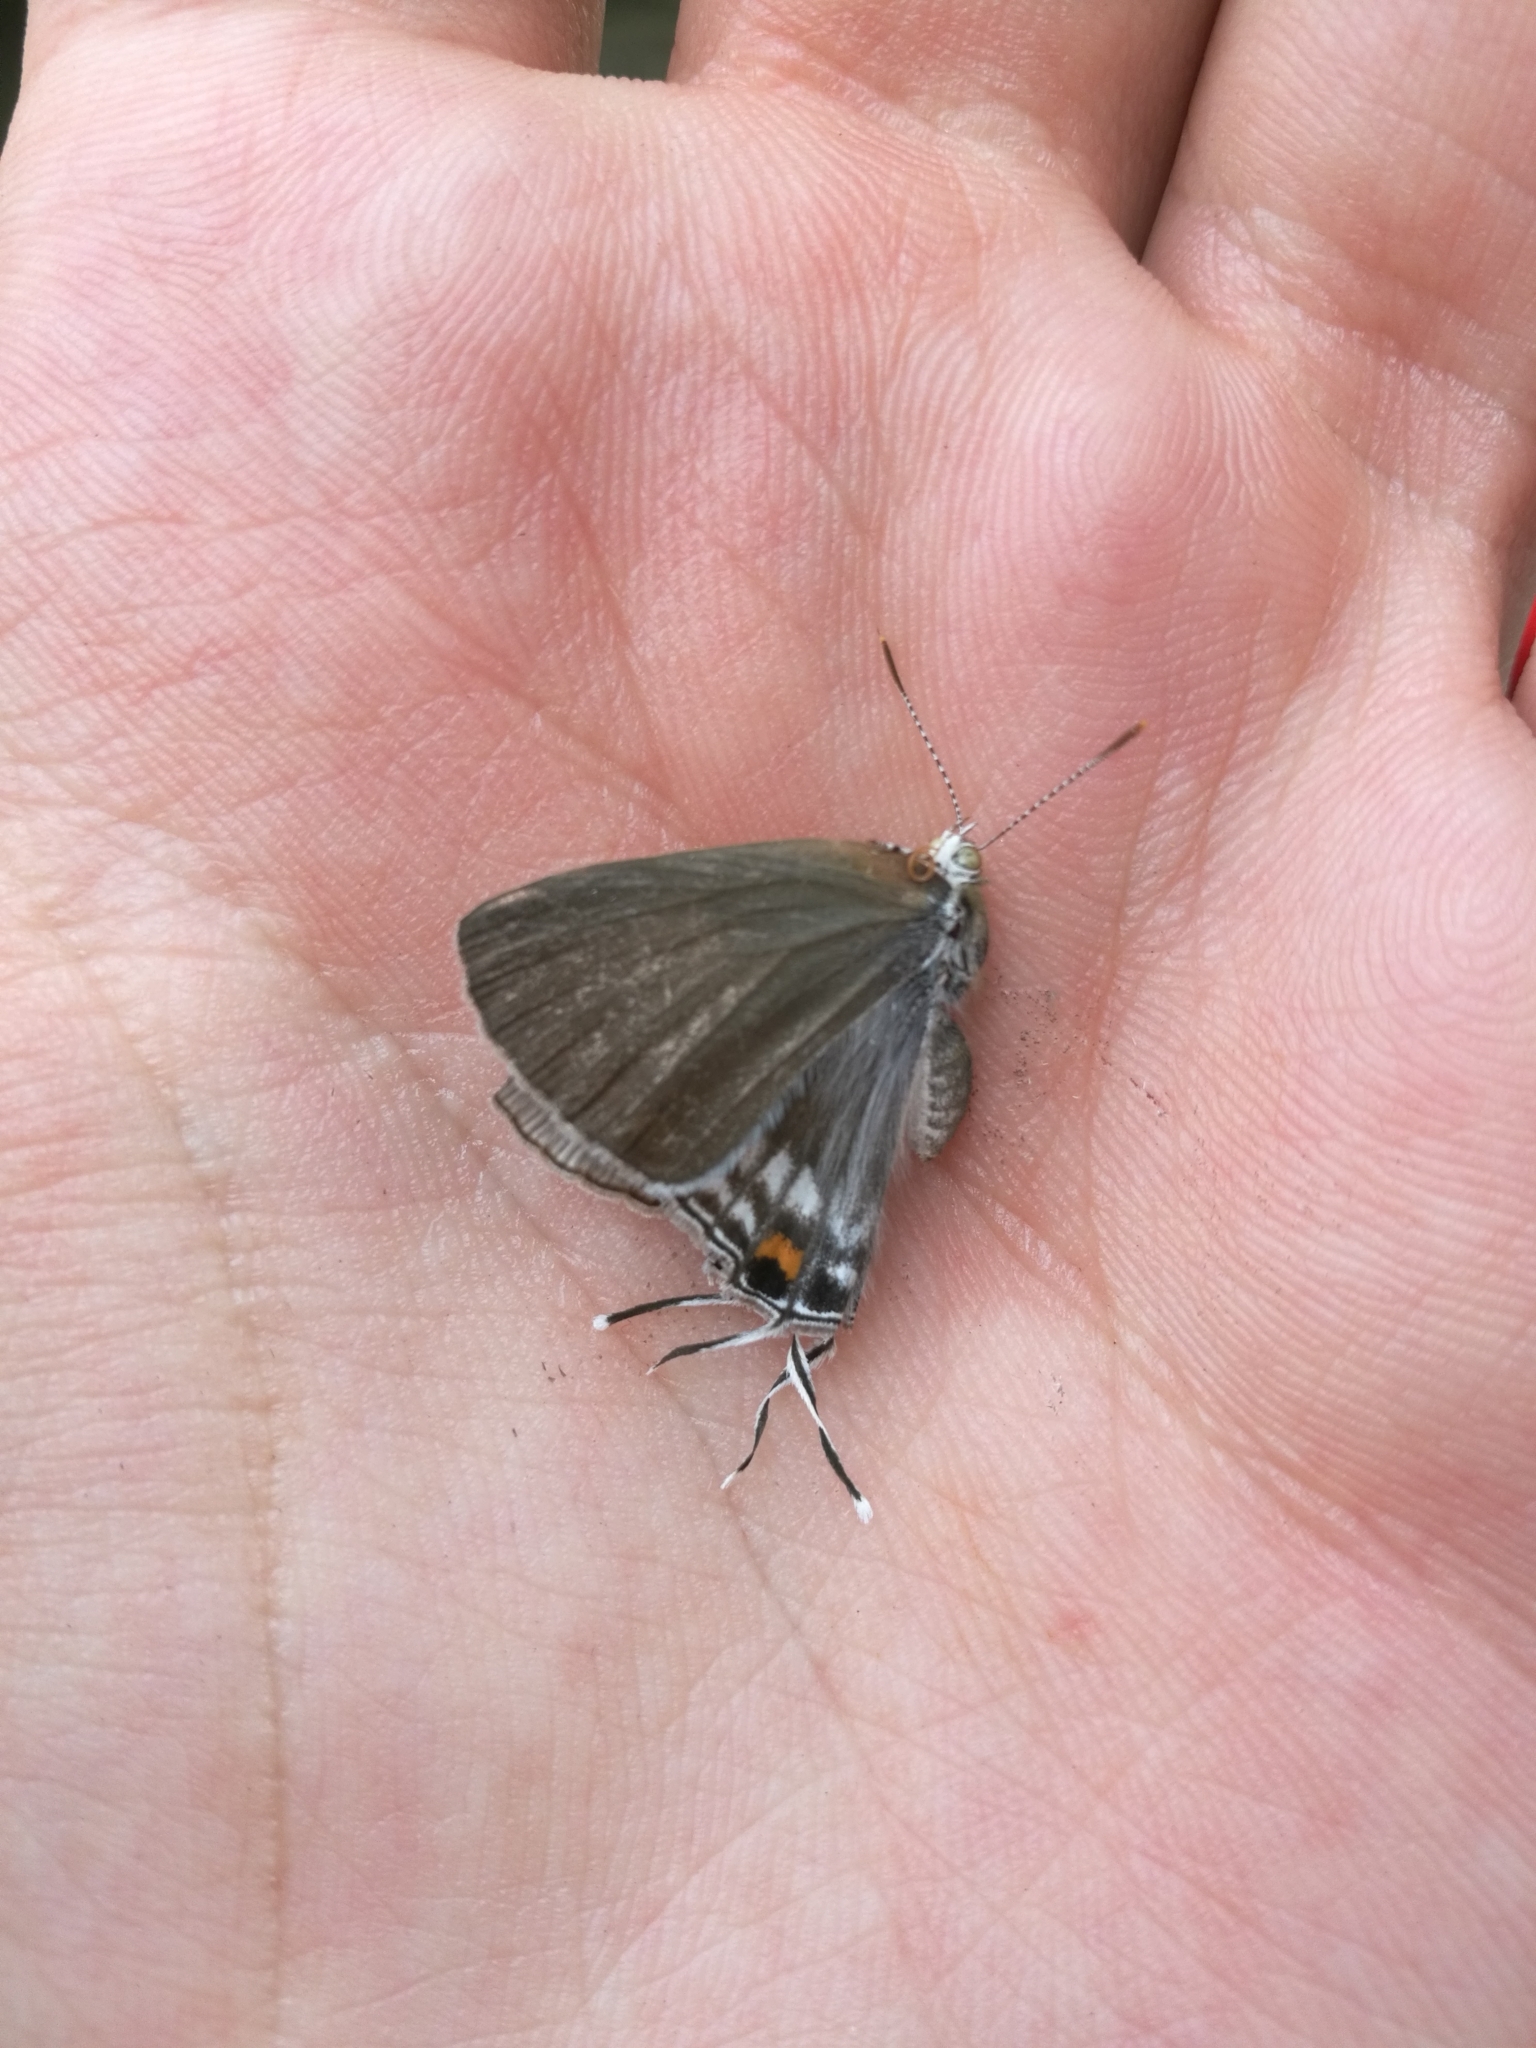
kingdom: Animalia
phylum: Arthropoda
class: Insecta
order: Lepidoptera
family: Lycaenidae
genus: Hypolycaena
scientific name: Hypolycaena philippus
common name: Common hairstreak
